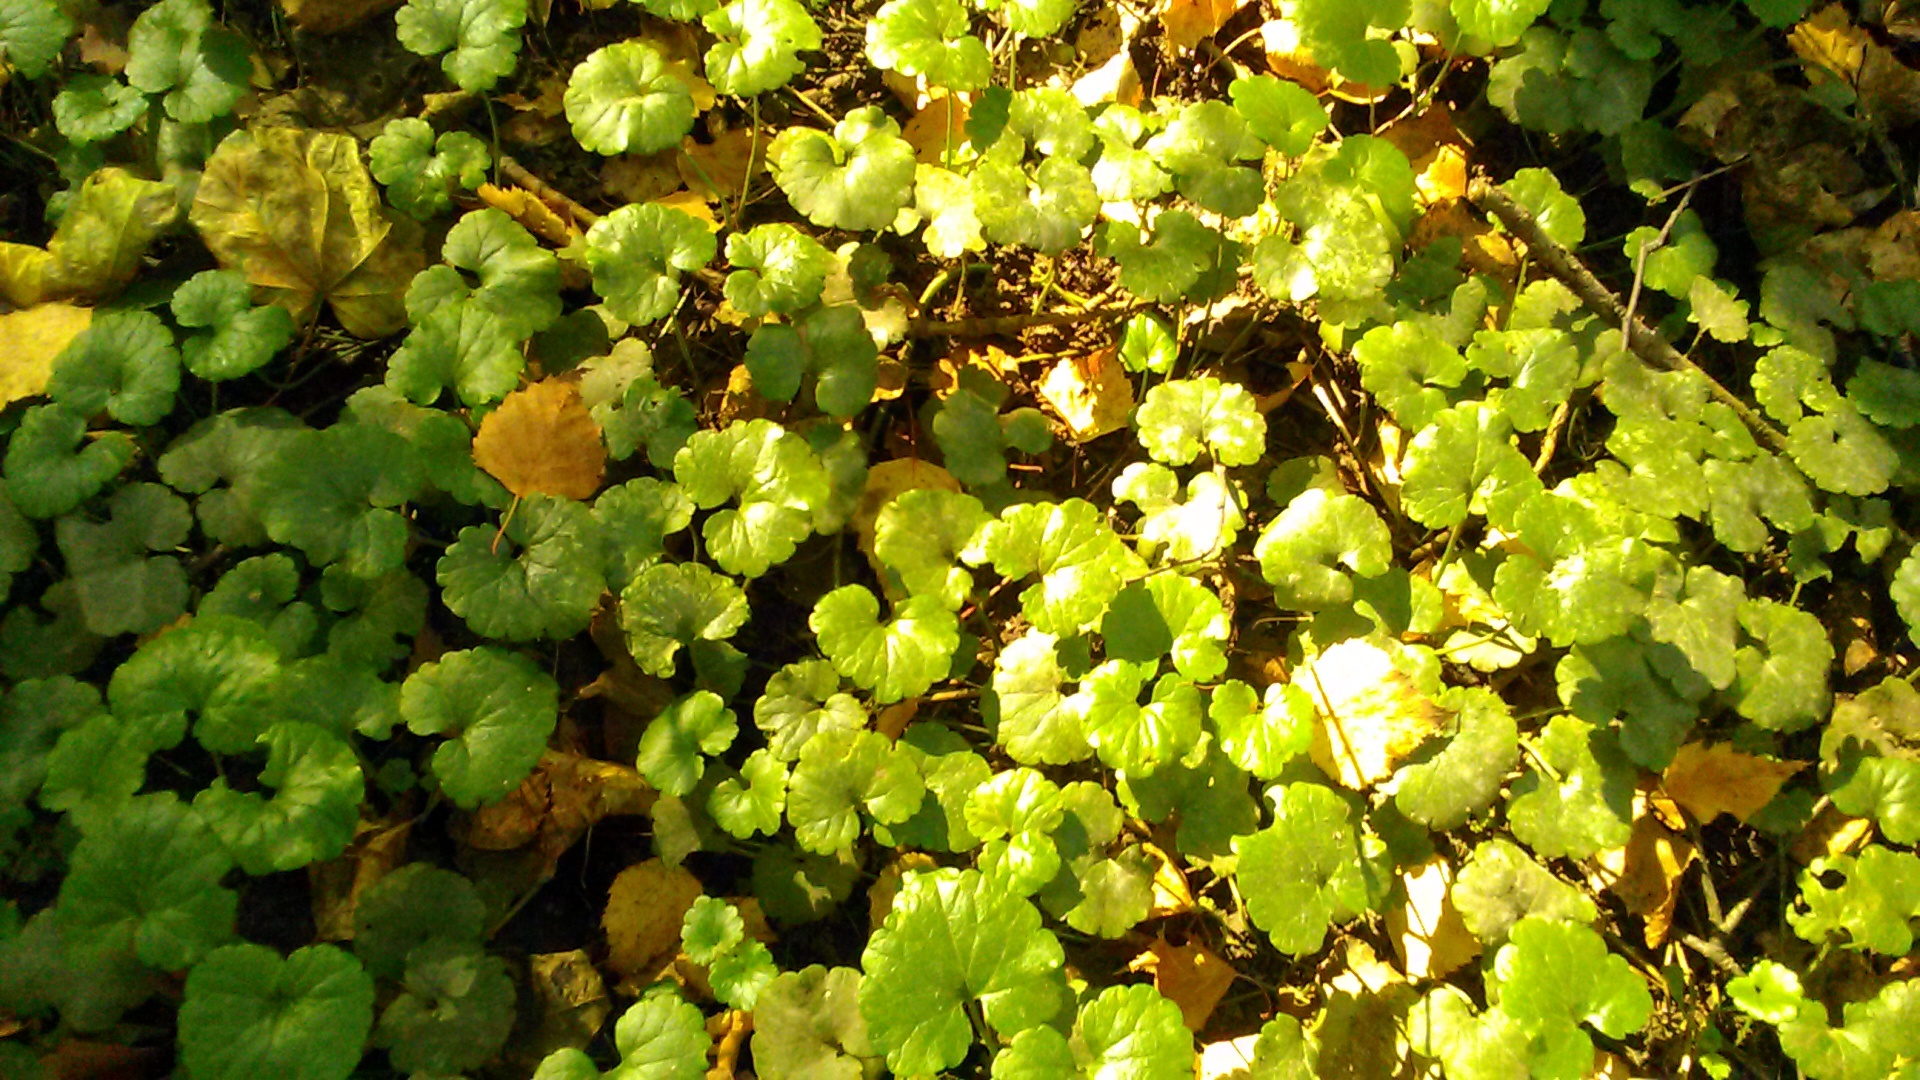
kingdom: Plantae
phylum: Tracheophyta
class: Magnoliopsida
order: Lamiales
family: Lamiaceae
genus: Glechoma
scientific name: Glechoma hederacea
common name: Ground ivy
